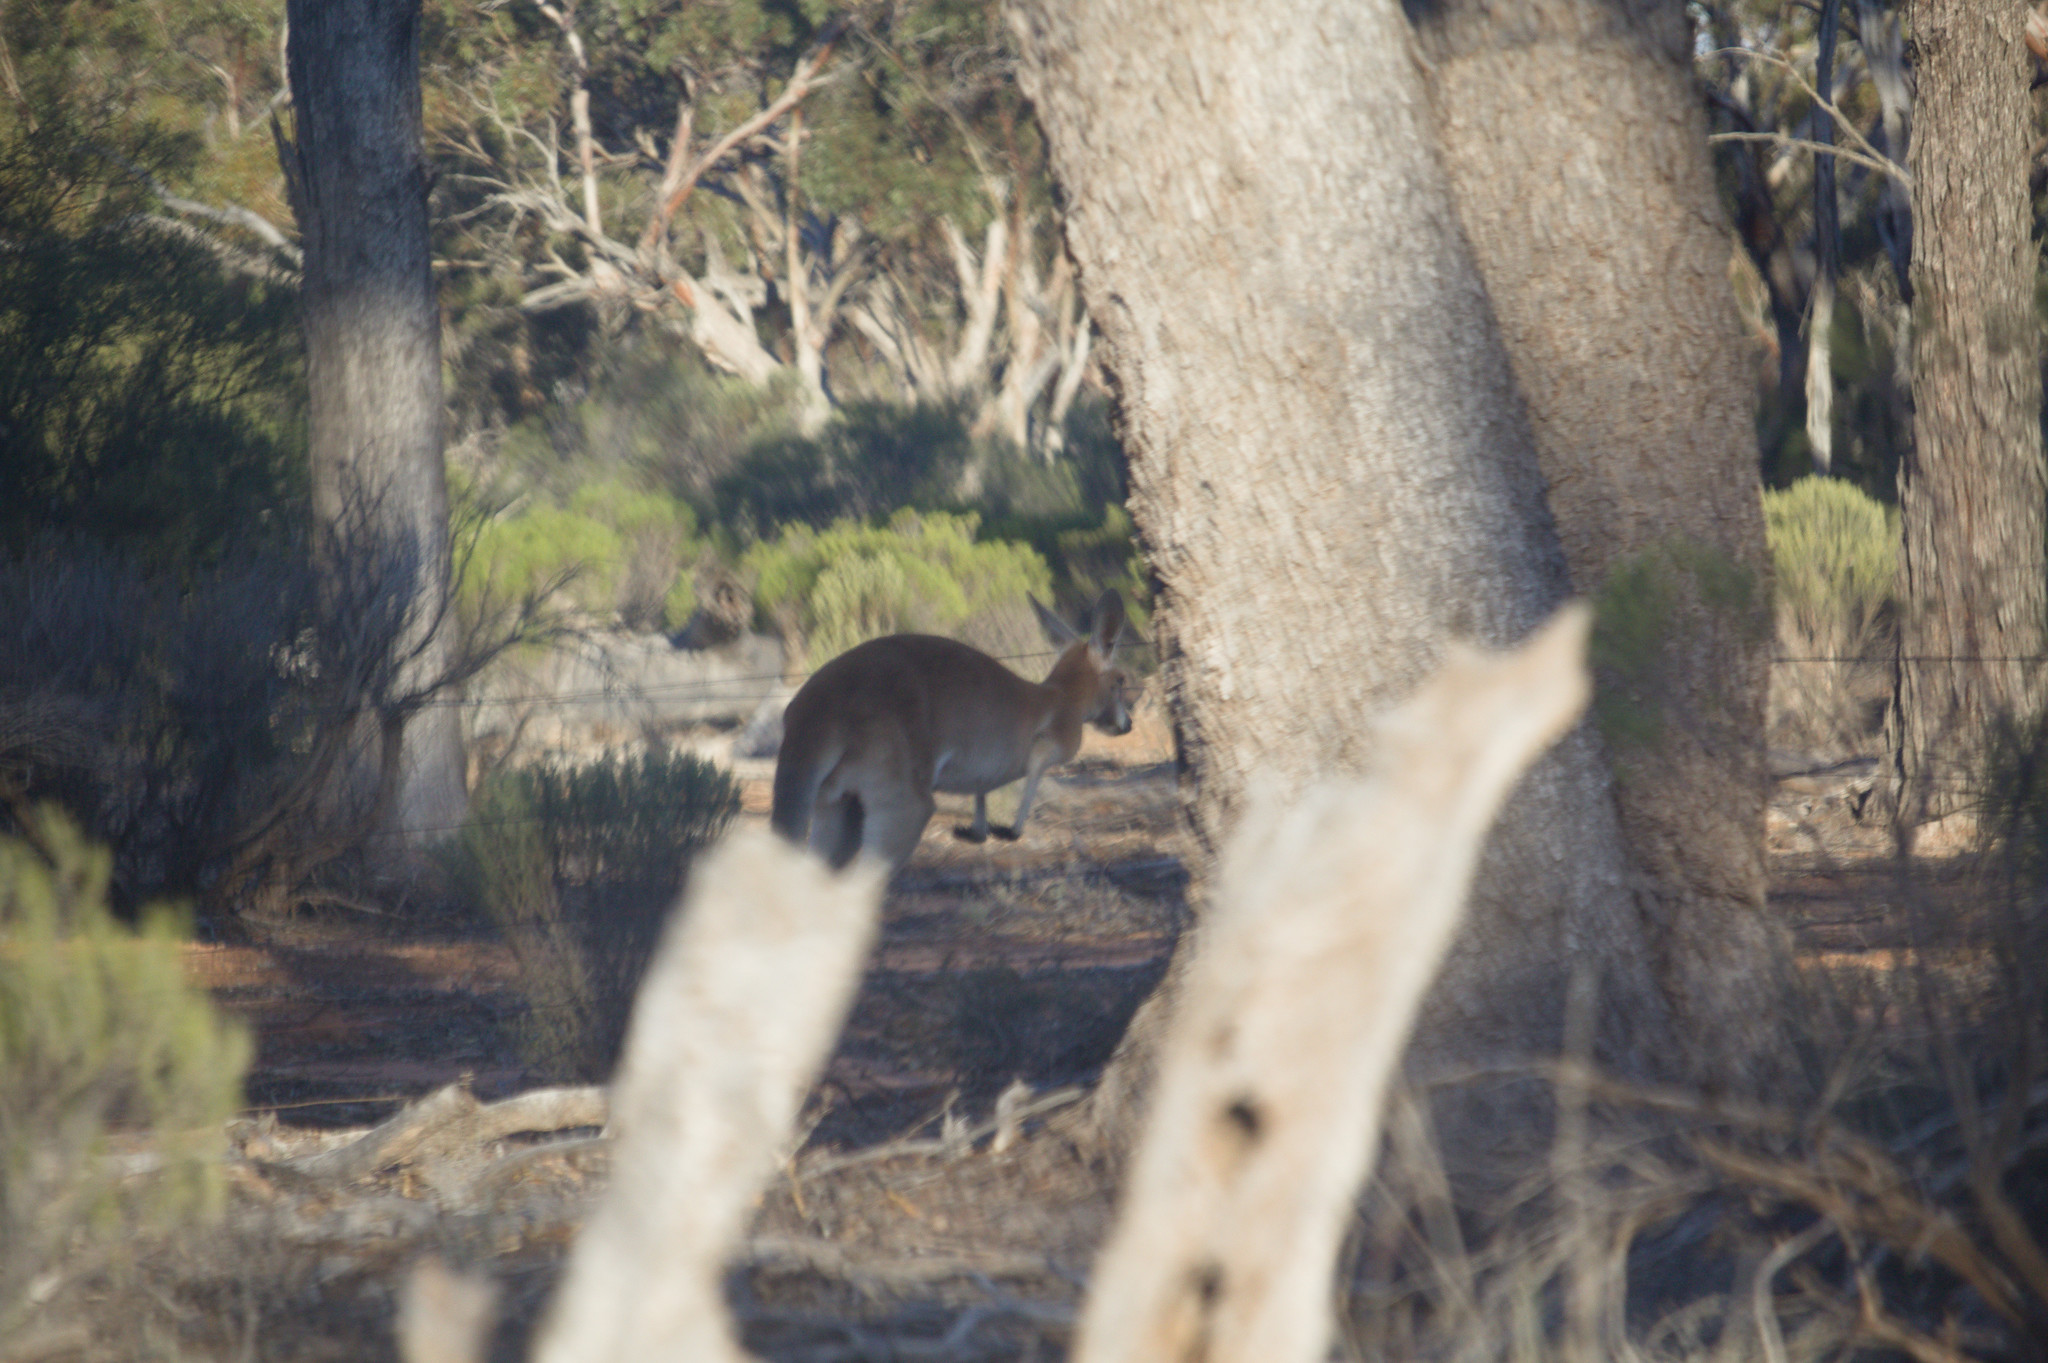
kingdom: Animalia
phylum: Chordata
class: Mammalia
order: Diprotodontia
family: Macropodidae
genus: Macropus
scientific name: Macropus rufus
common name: Red kangaroo
